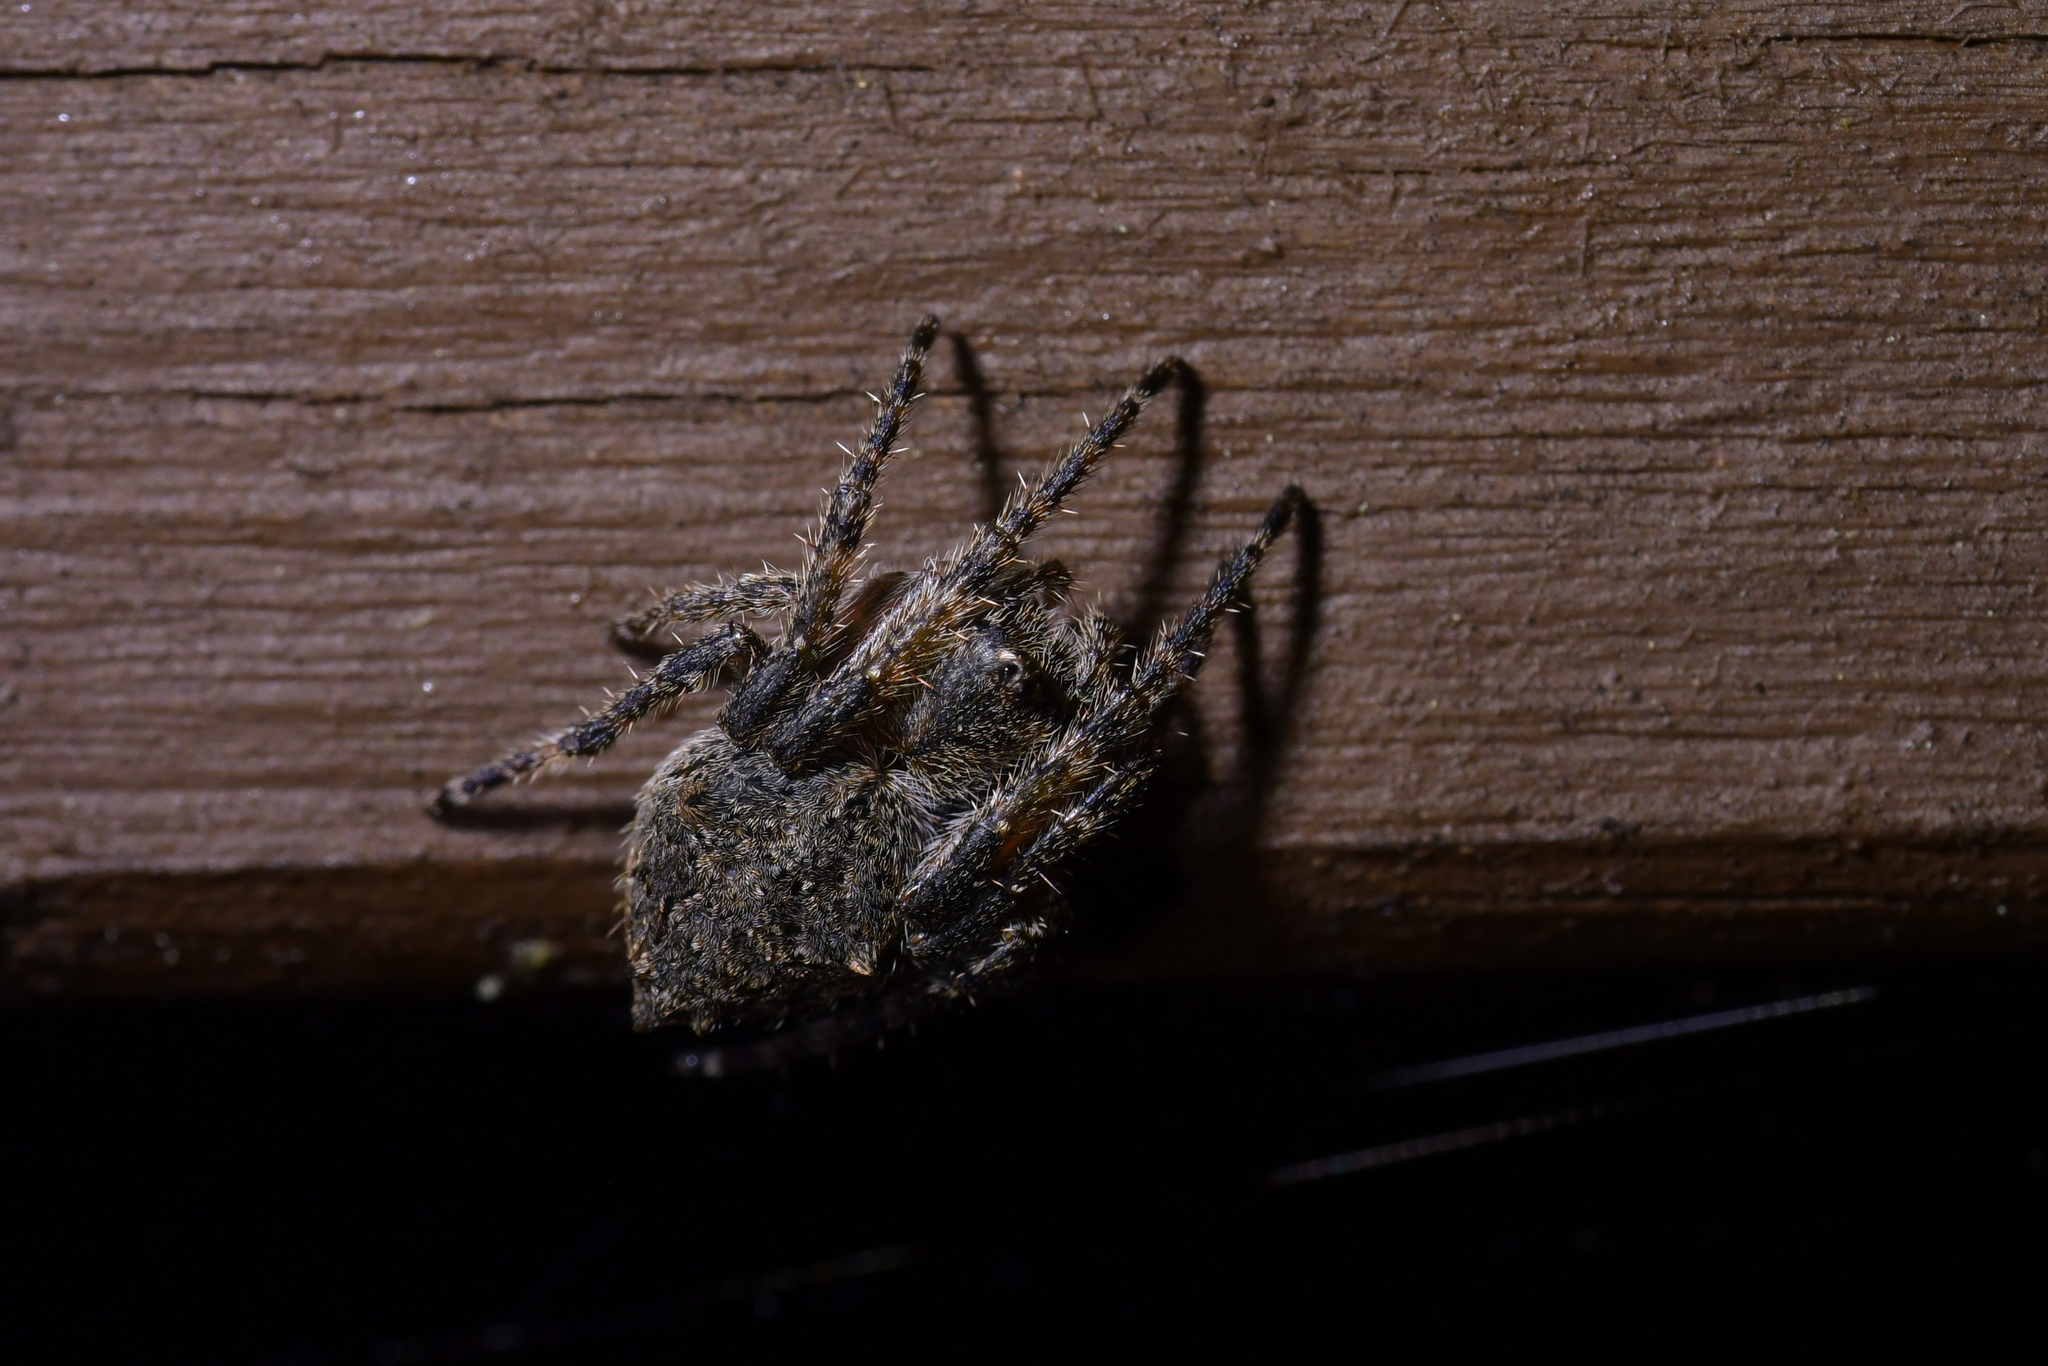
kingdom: Animalia
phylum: Arthropoda
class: Arachnida
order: Araneae
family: Araneidae
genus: Eriophora
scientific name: Eriophora pustulosa
